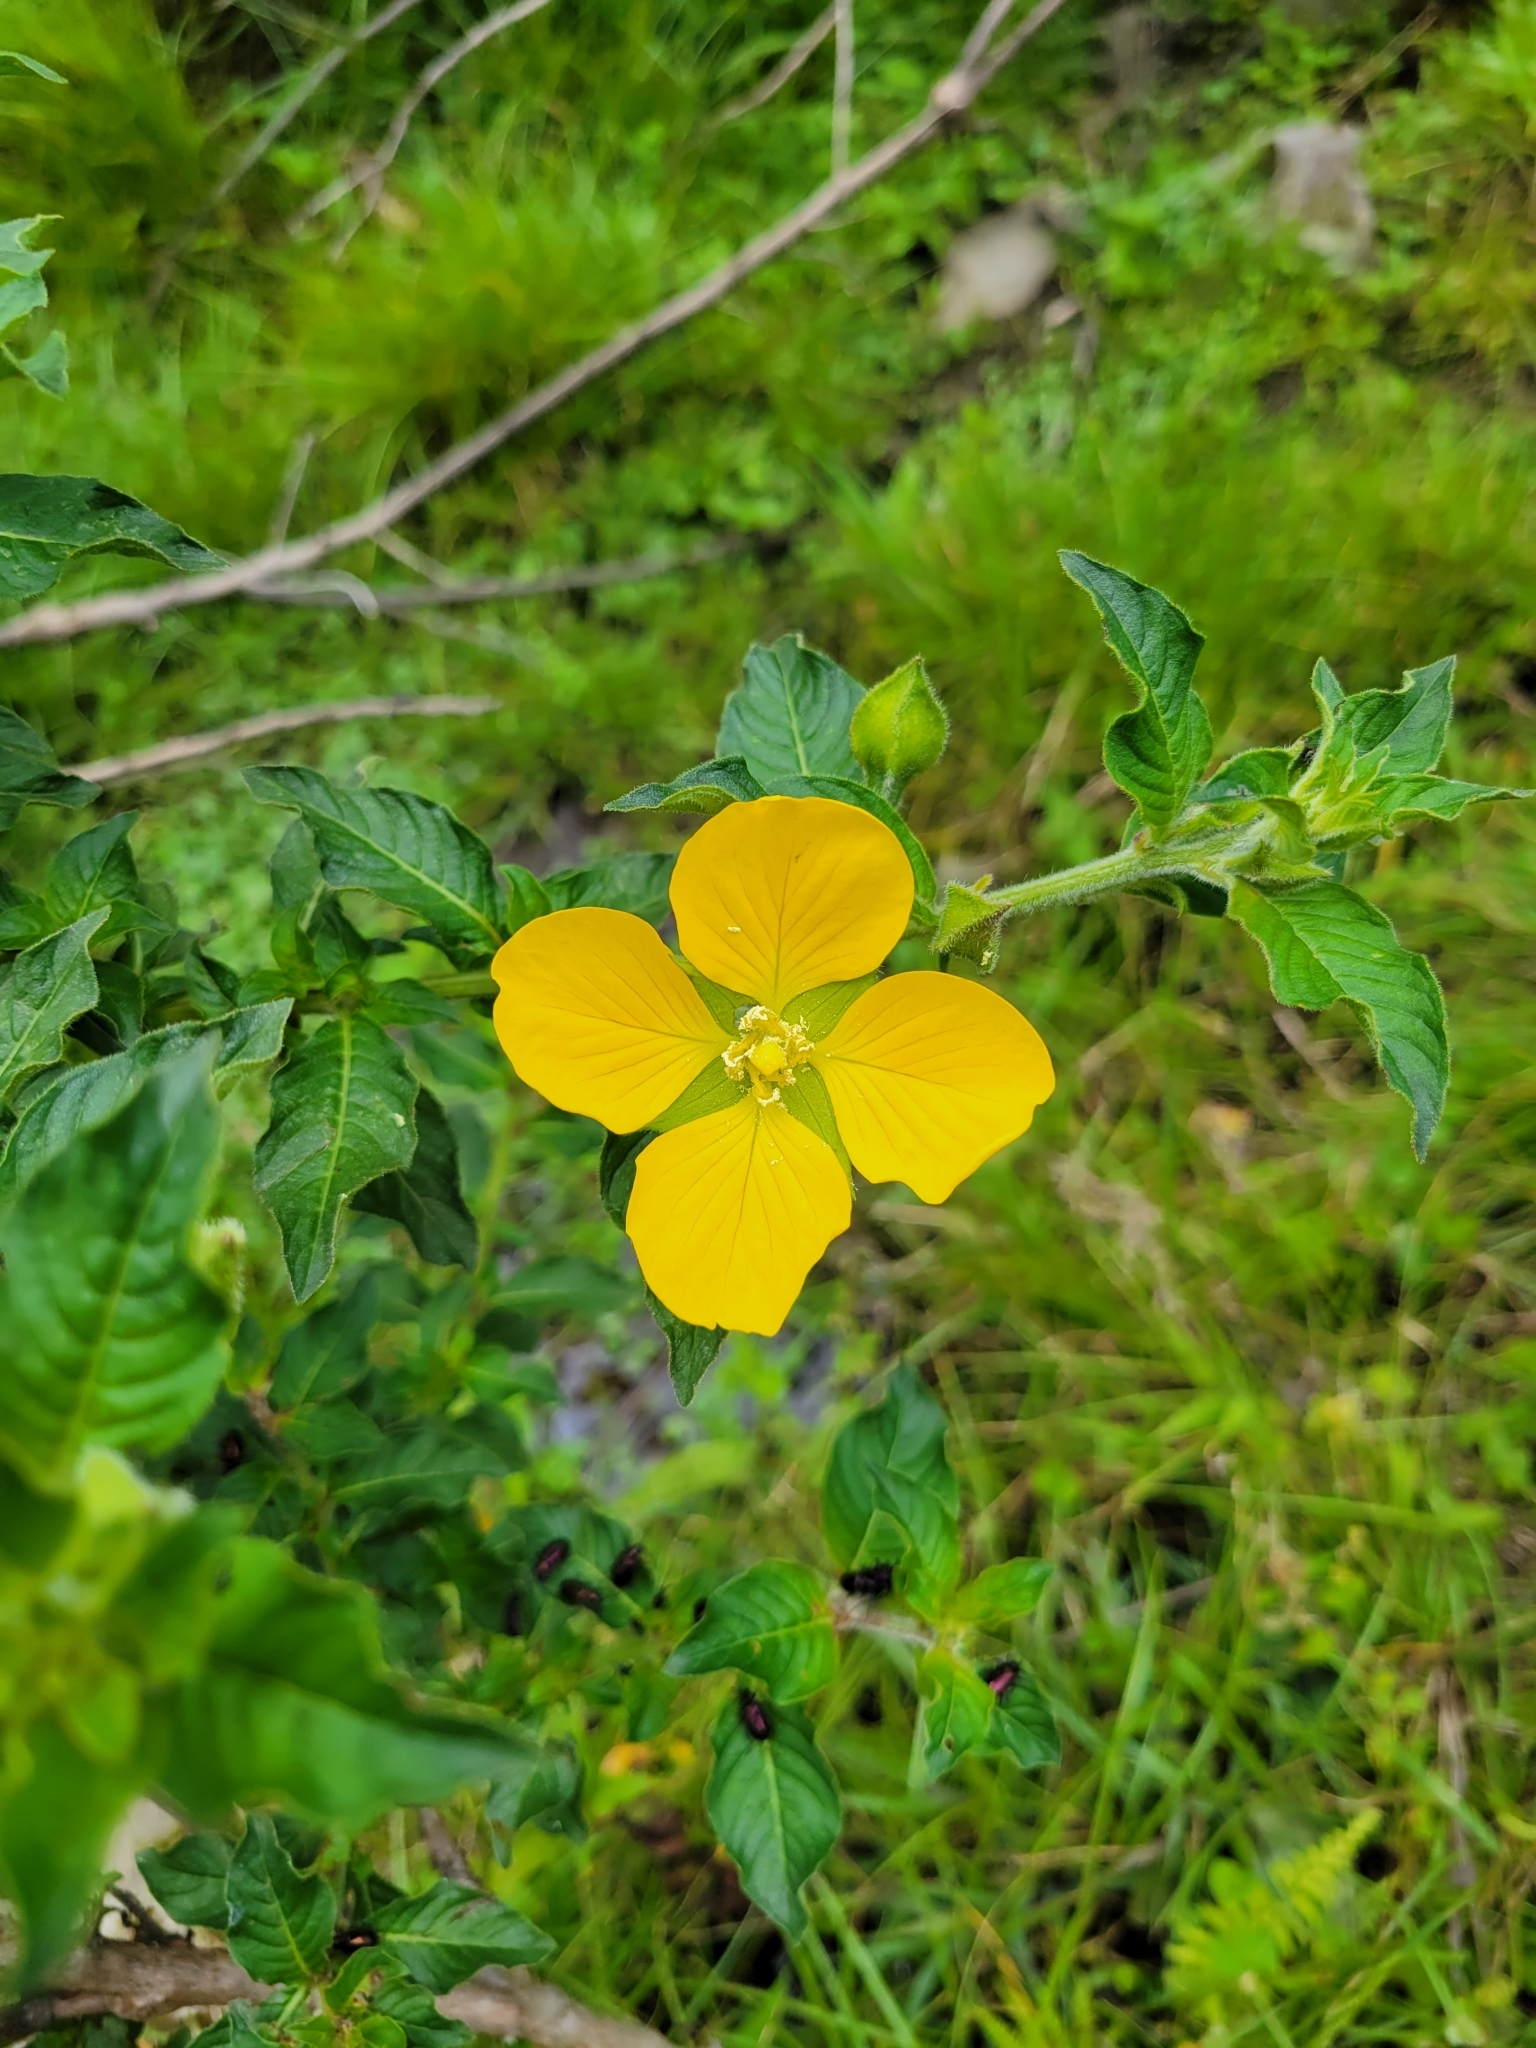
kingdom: Plantae
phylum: Tracheophyta
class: Magnoliopsida
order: Myrtales
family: Onagraceae
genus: Ludwigia
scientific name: Ludwigia peruviana
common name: Peruvian primrose-willow
